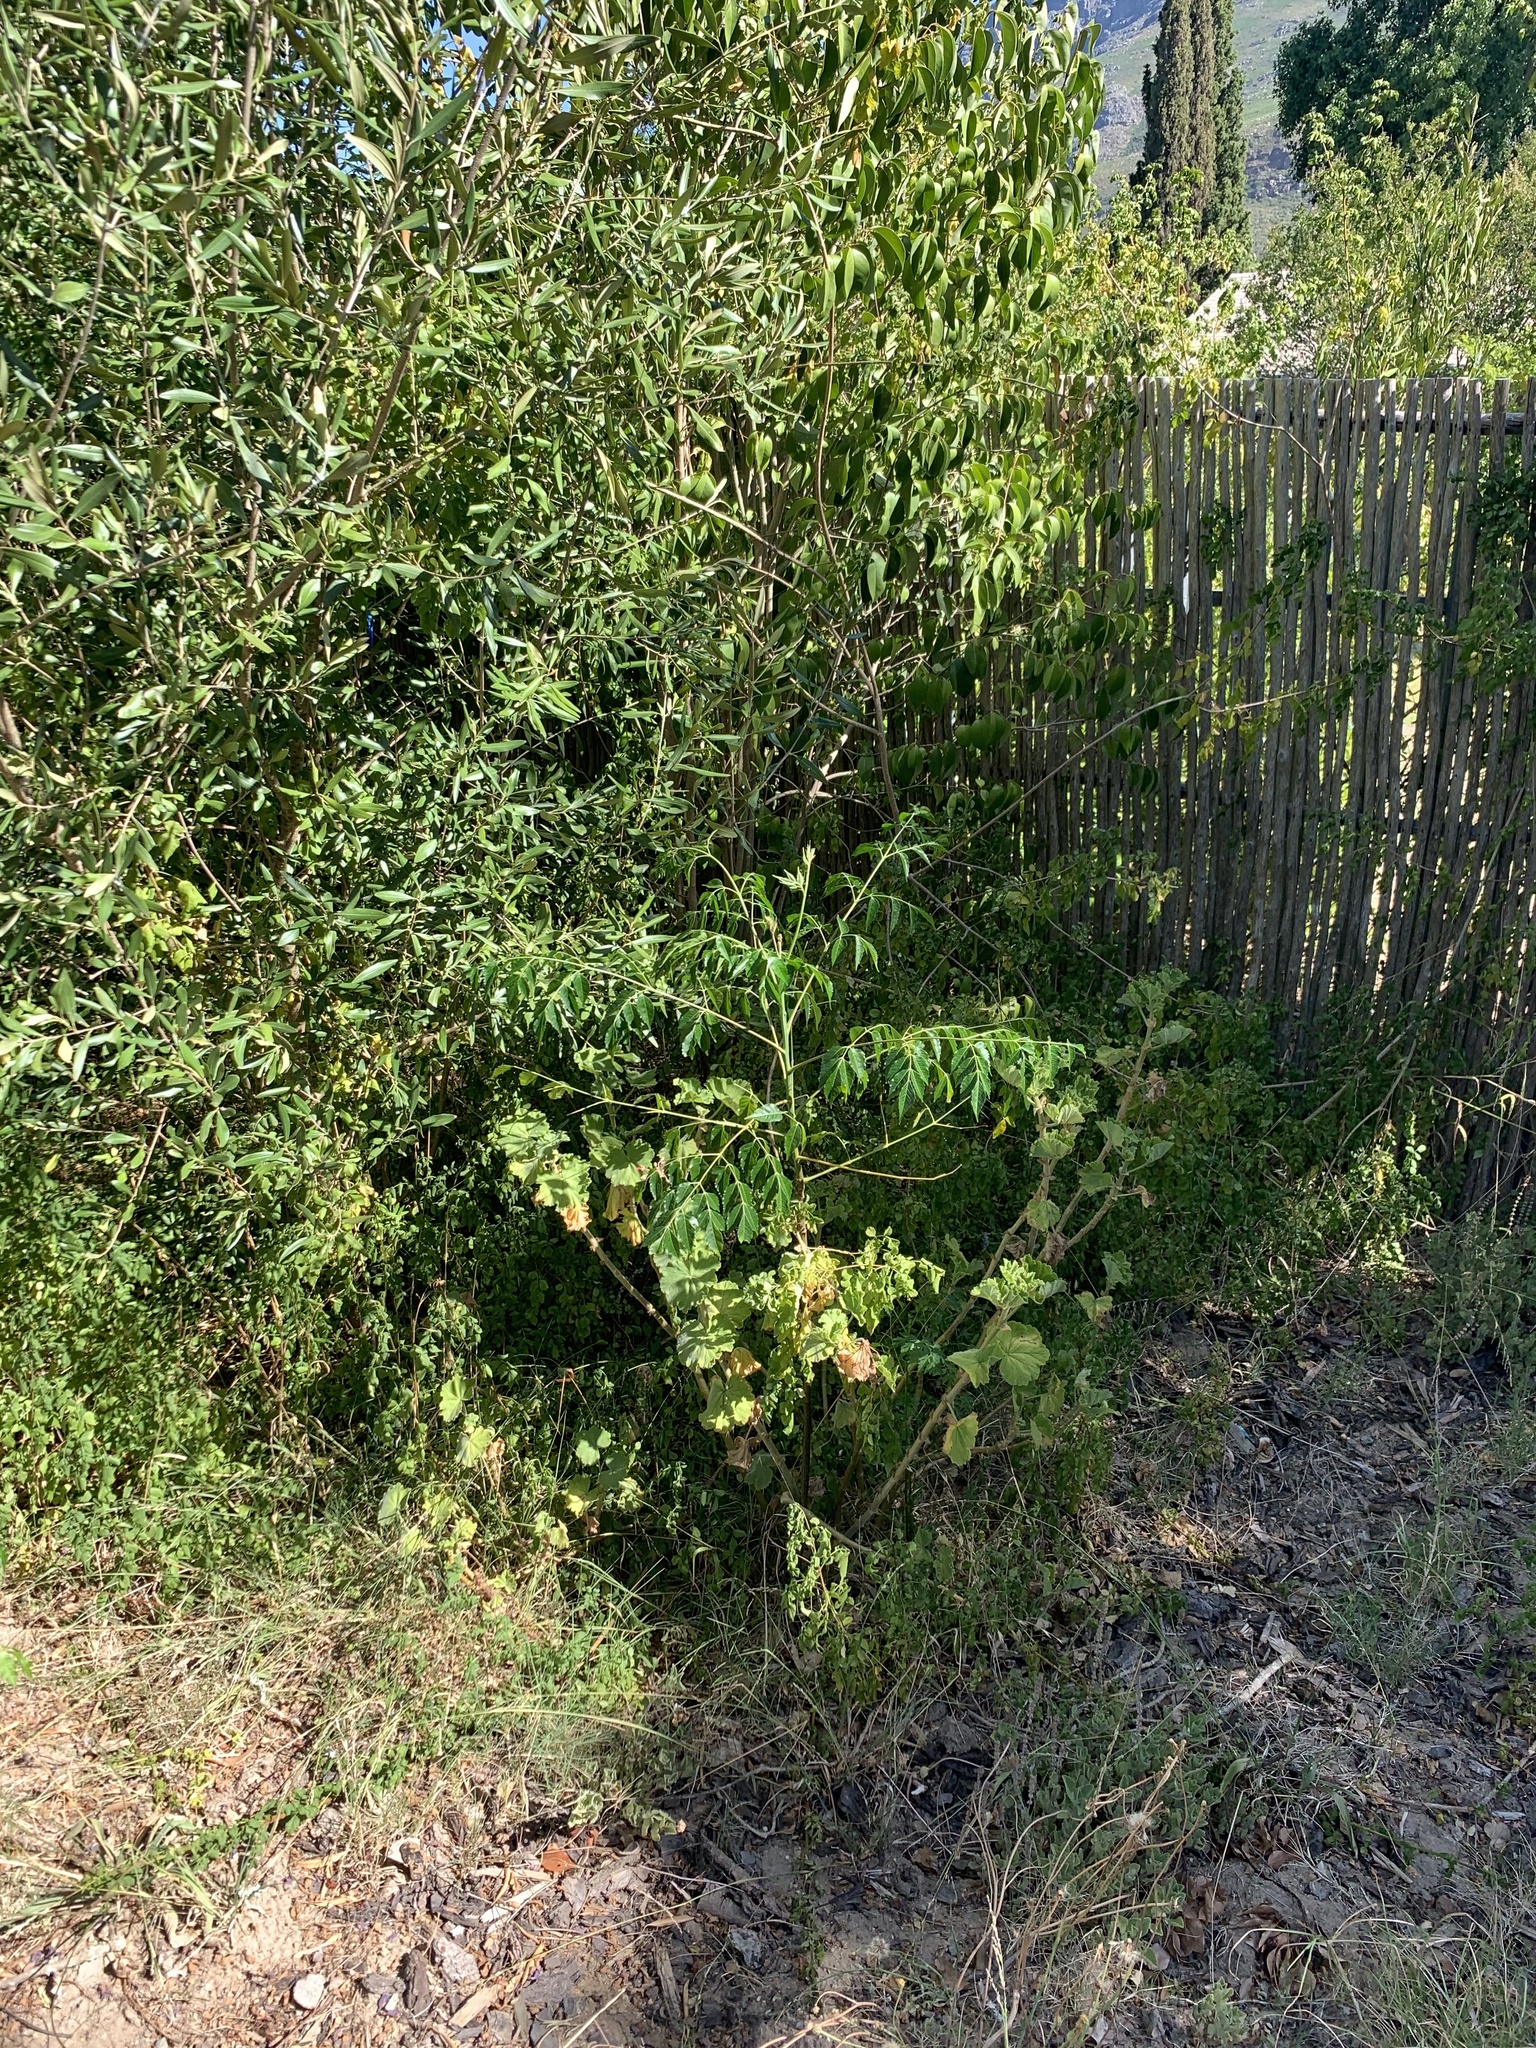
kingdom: Plantae
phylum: Tracheophyta
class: Magnoliopsida
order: Sapindales
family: Meliaceae
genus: Melia
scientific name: Melia azedarach
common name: Chinaberrytree
